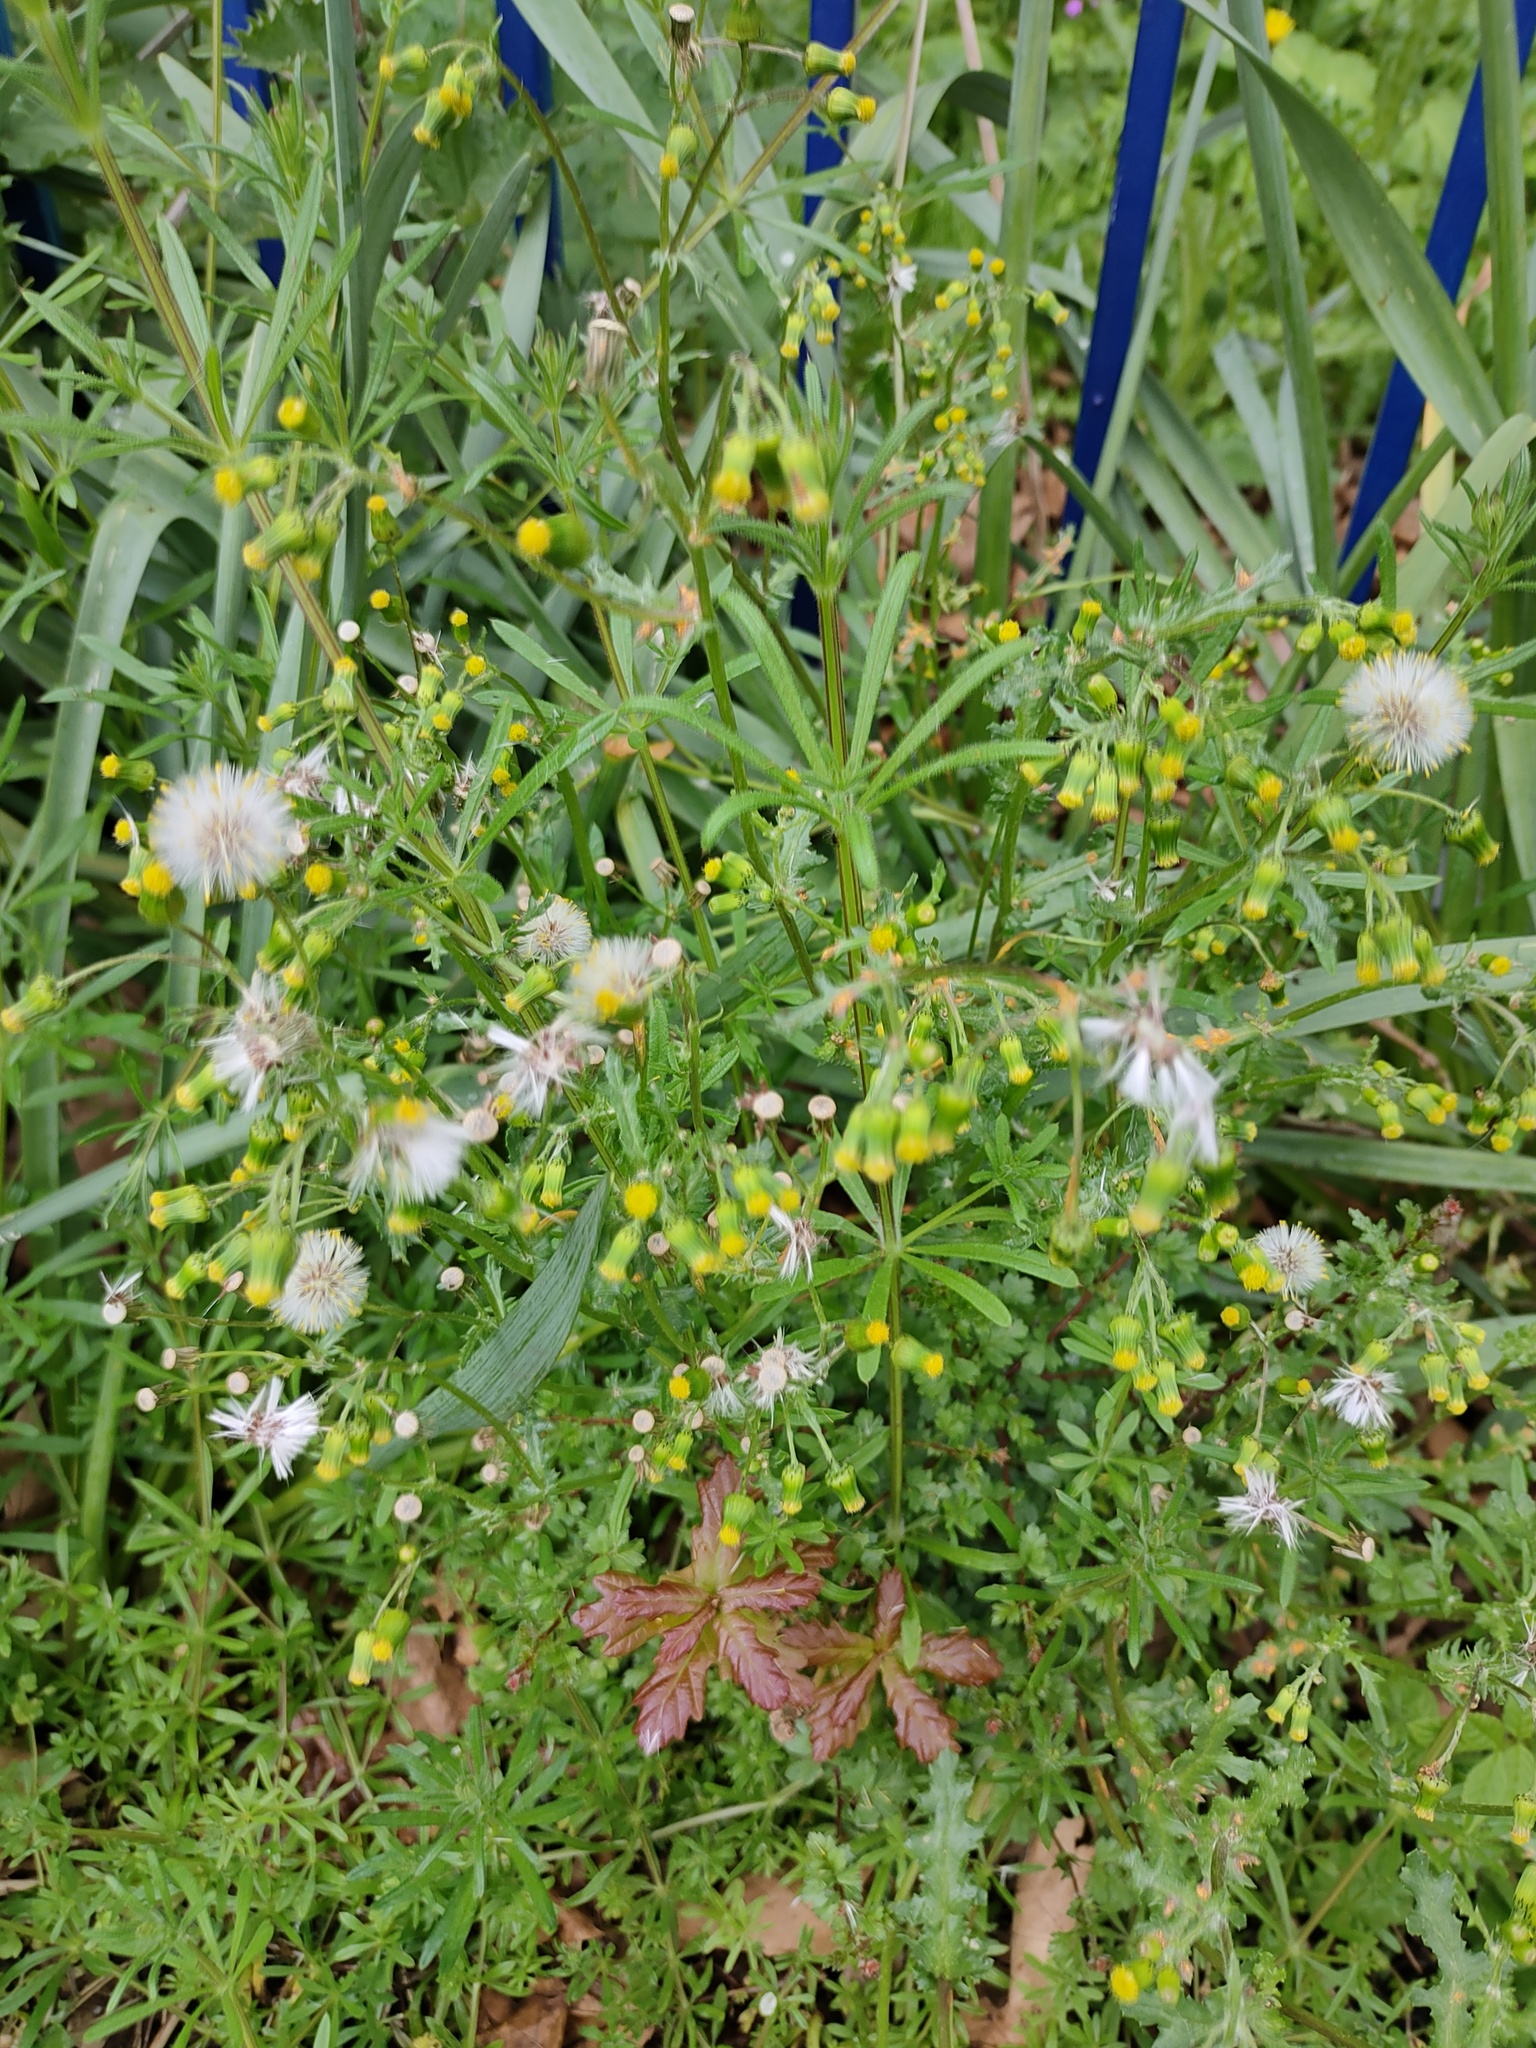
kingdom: Plantae
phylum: Tracheophyta
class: Magnoliopsida
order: Asterales
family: Asteraceae
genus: Senecio
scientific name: Senecio vulgaris
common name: Old-man-in-the-spring
